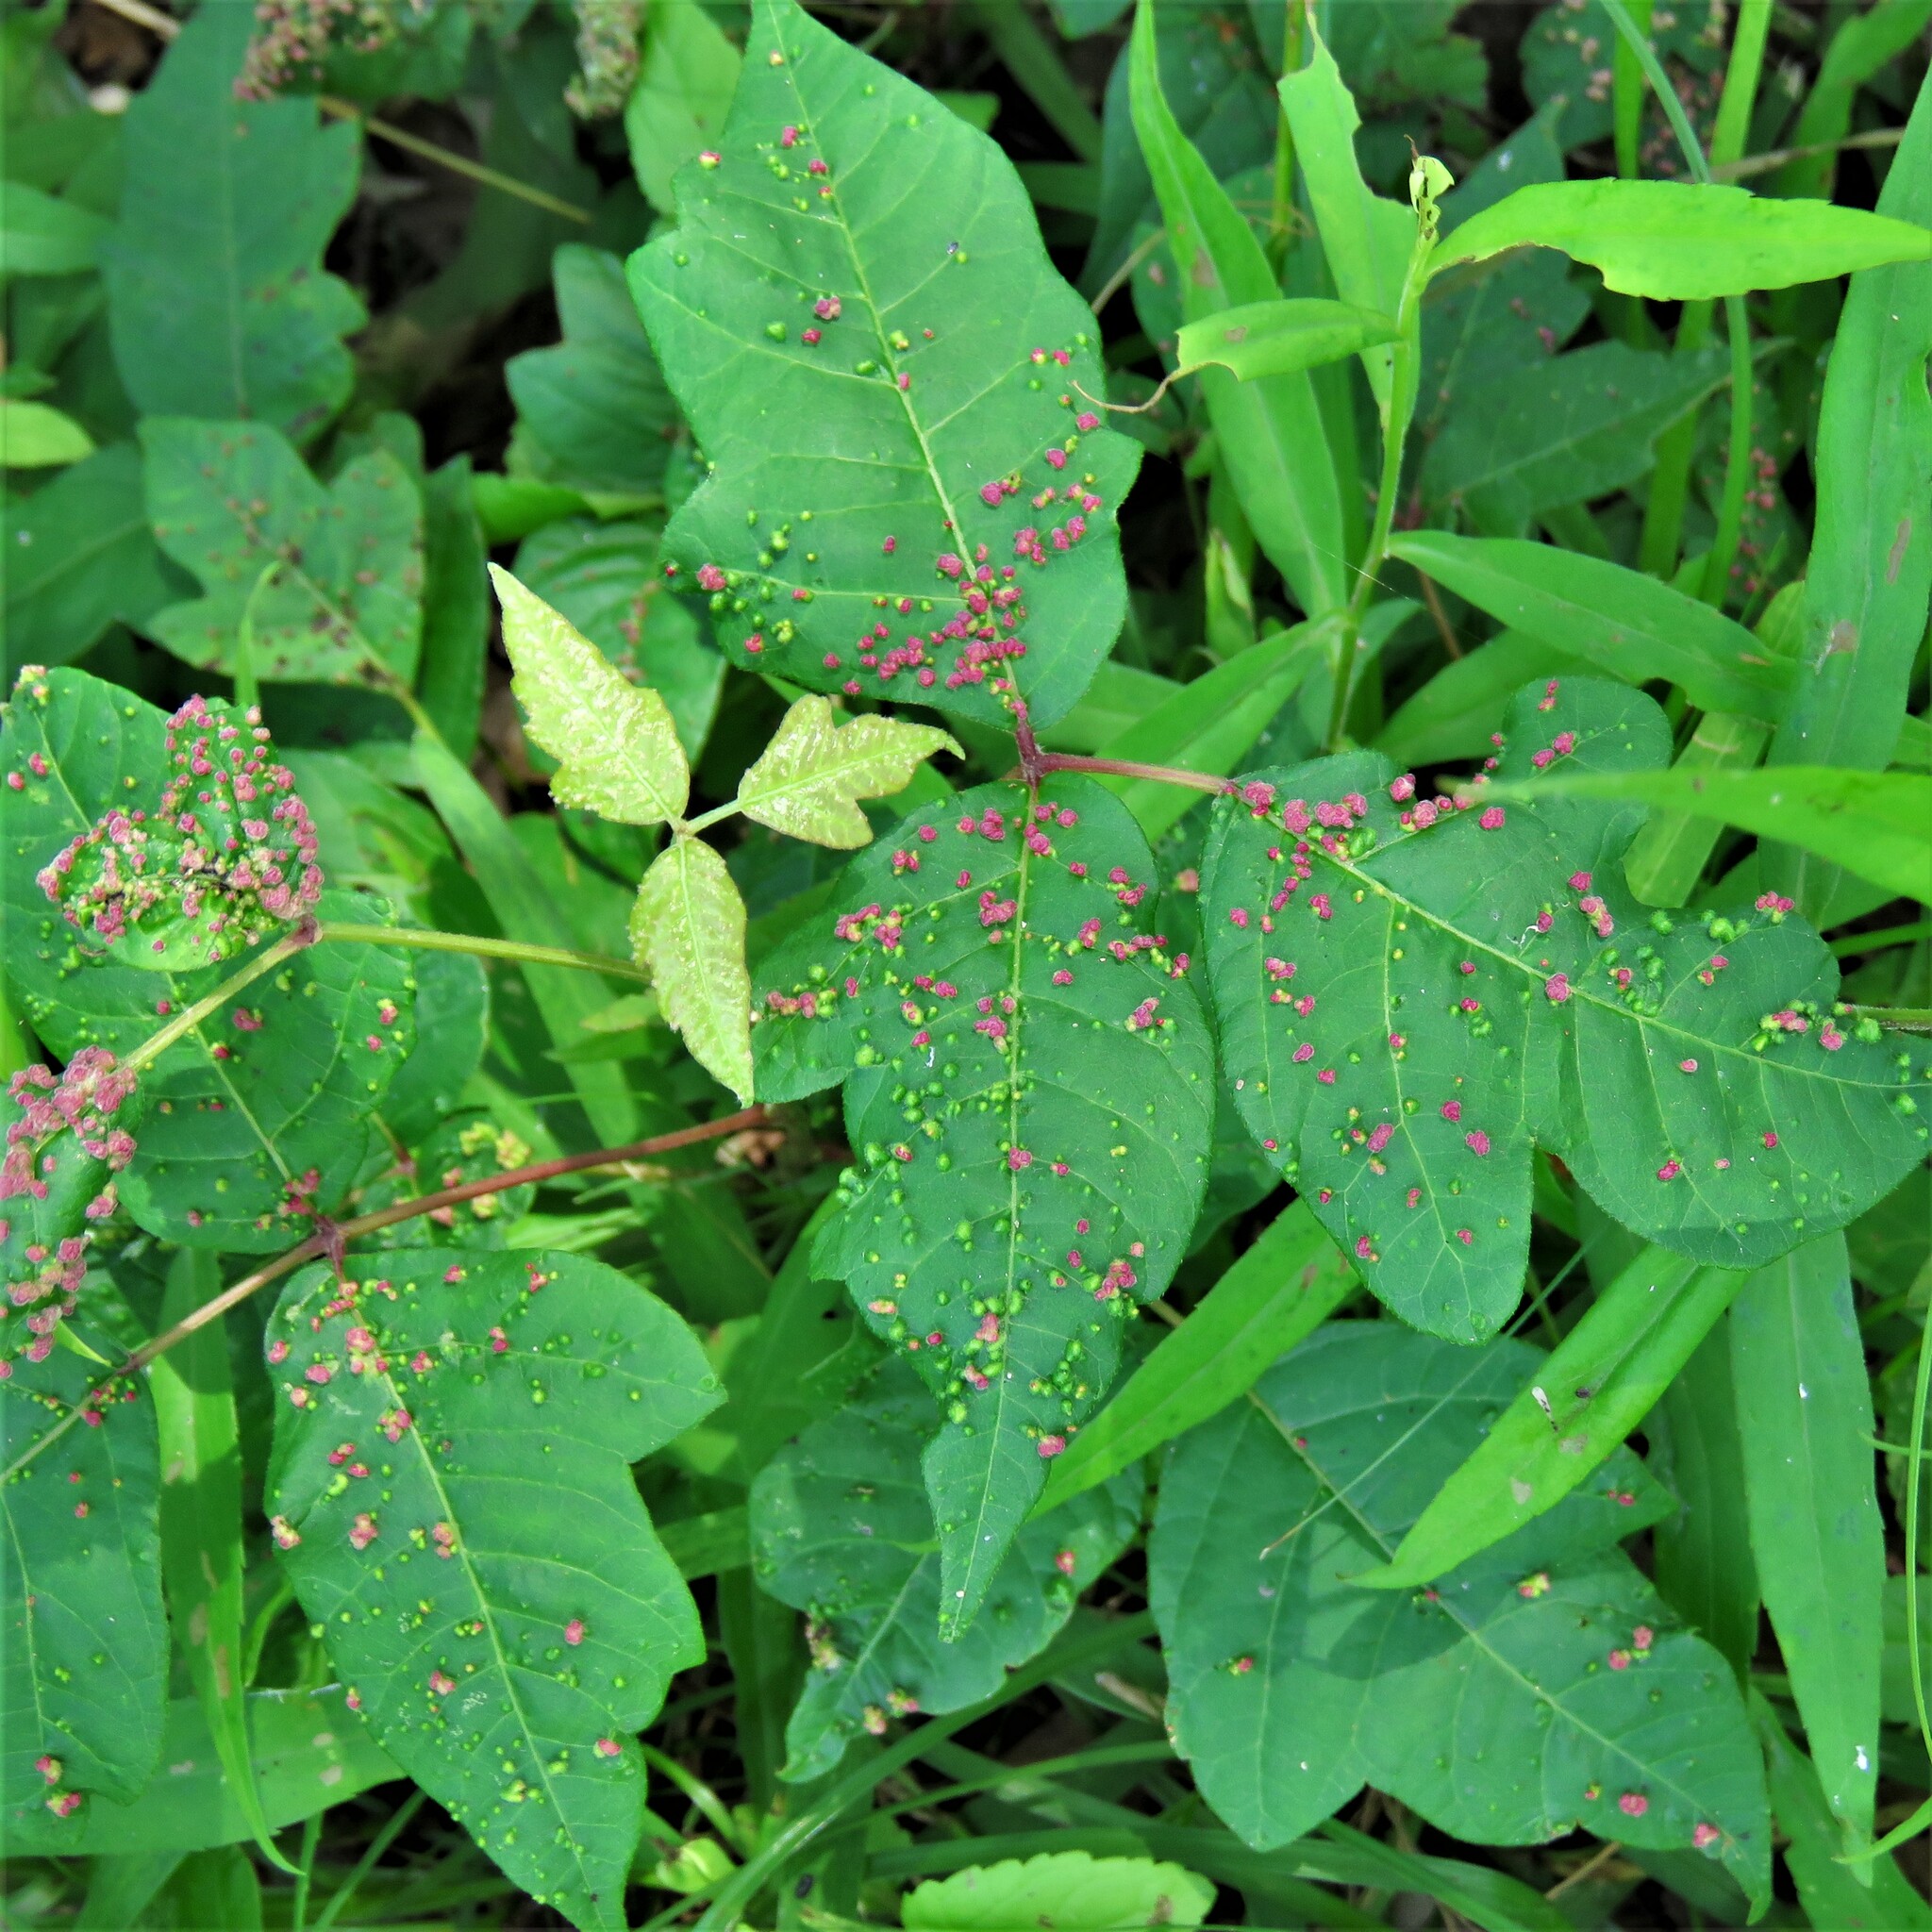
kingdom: Animalia
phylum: Arthropoda
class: Arachnida
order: Trombidiformes
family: Eriophyidae
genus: Aculops
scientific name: Aculops
